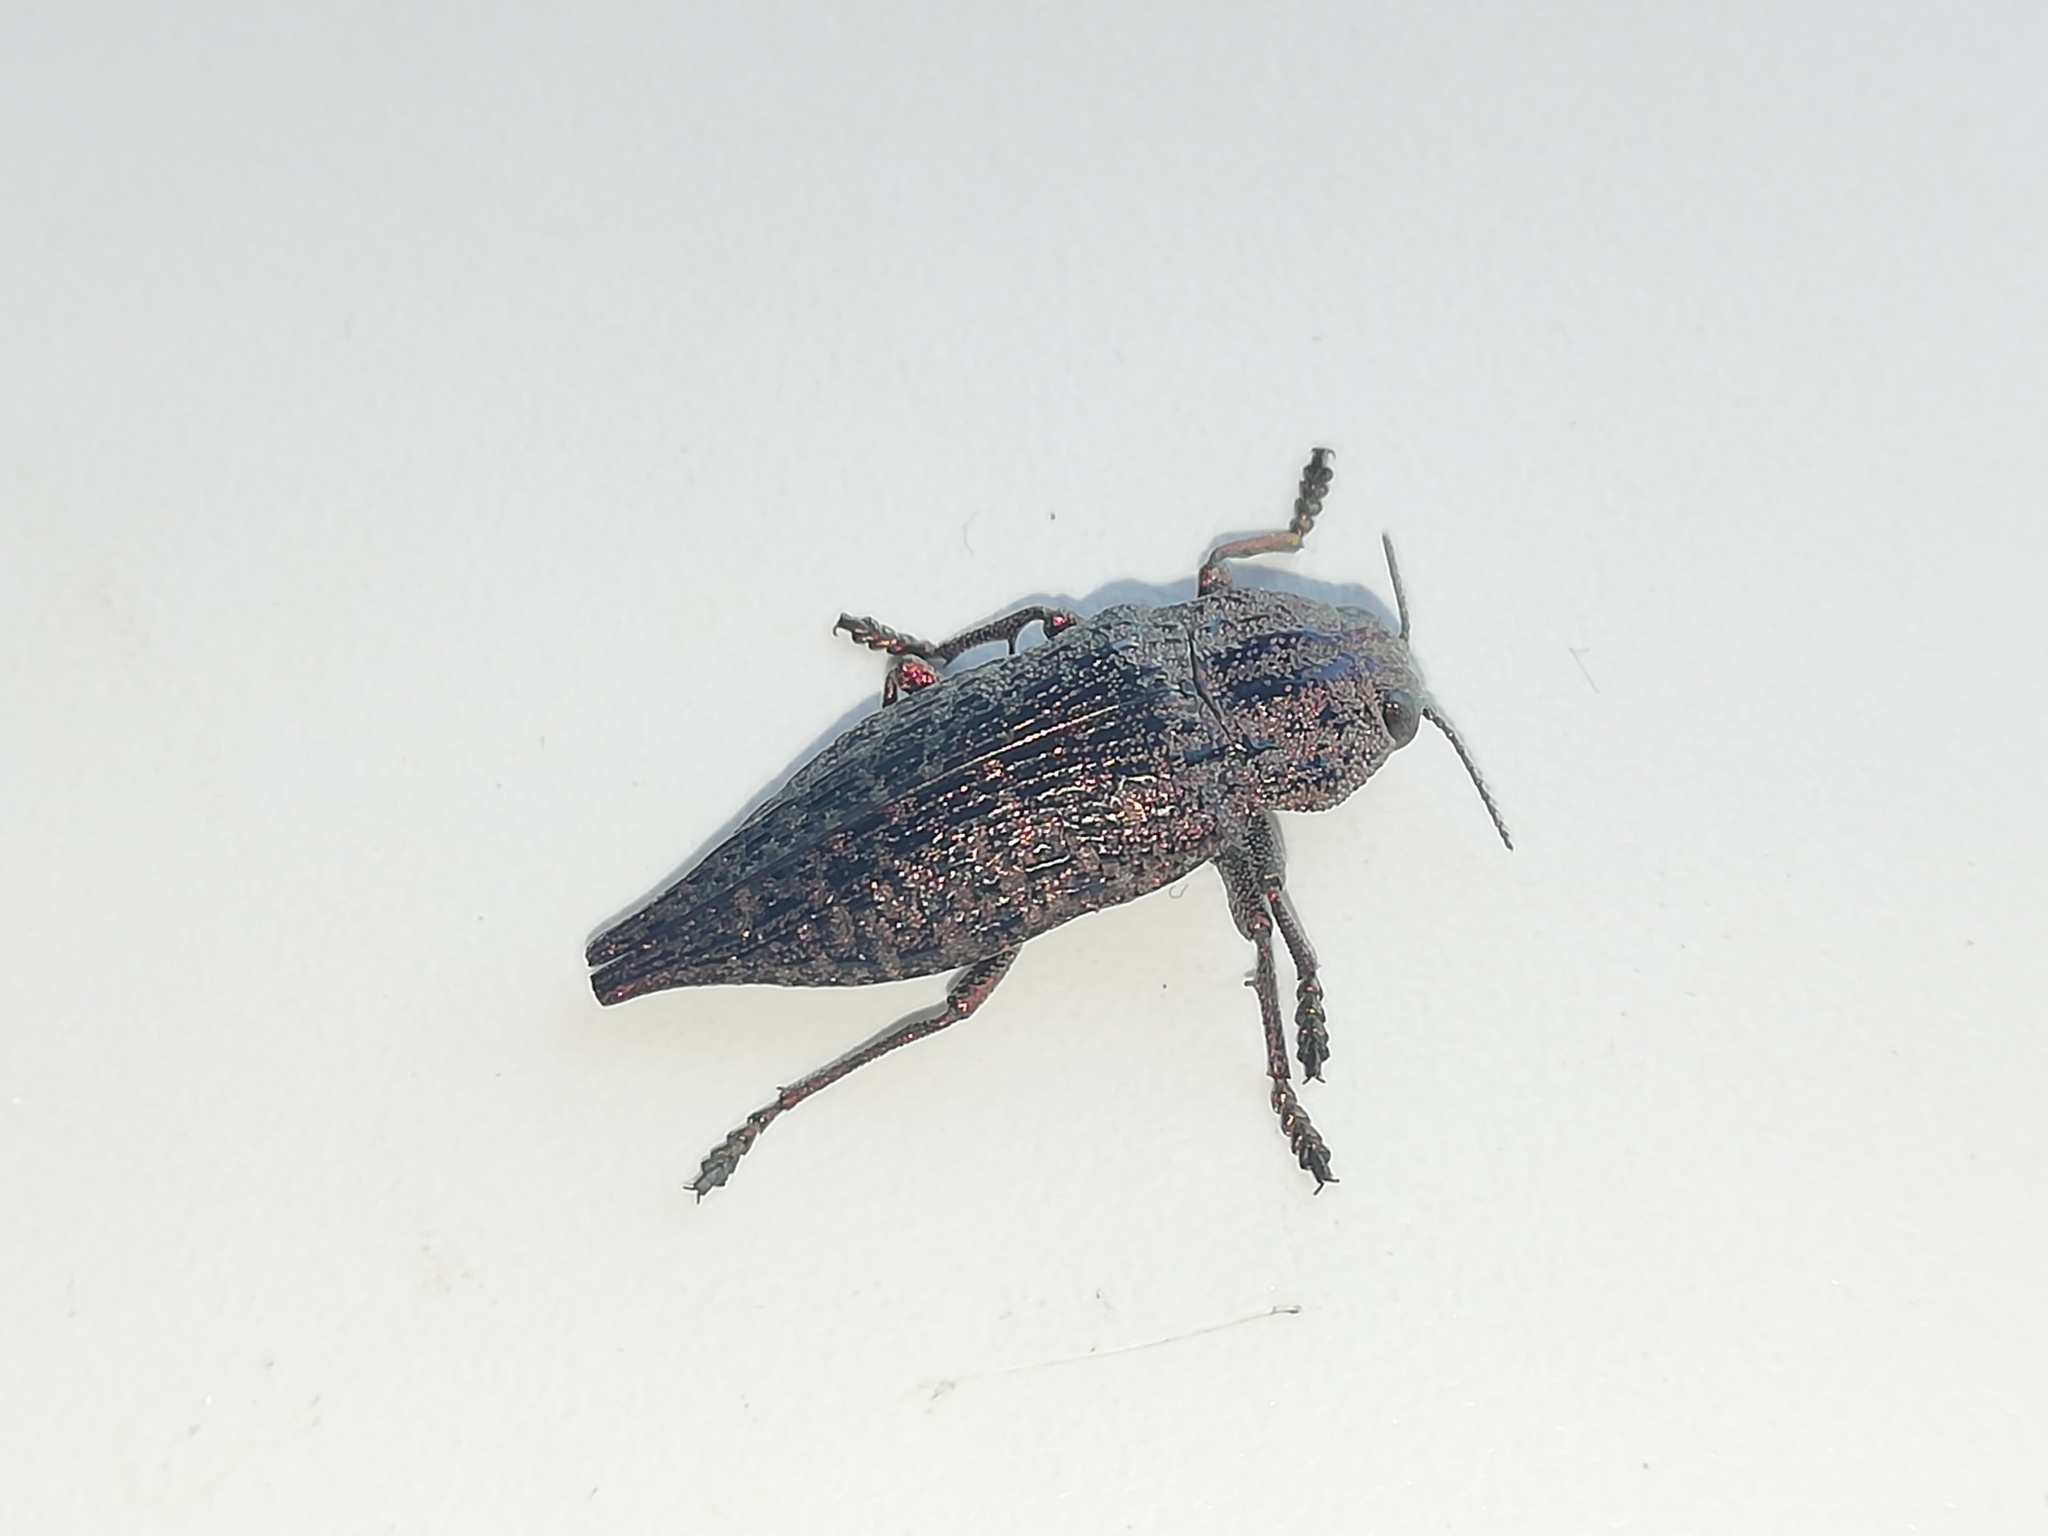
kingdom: Animalia
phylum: Arthropoda
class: Insecta
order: Coleoptera
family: Buprestidae
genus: Dicerca
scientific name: Dicerca
